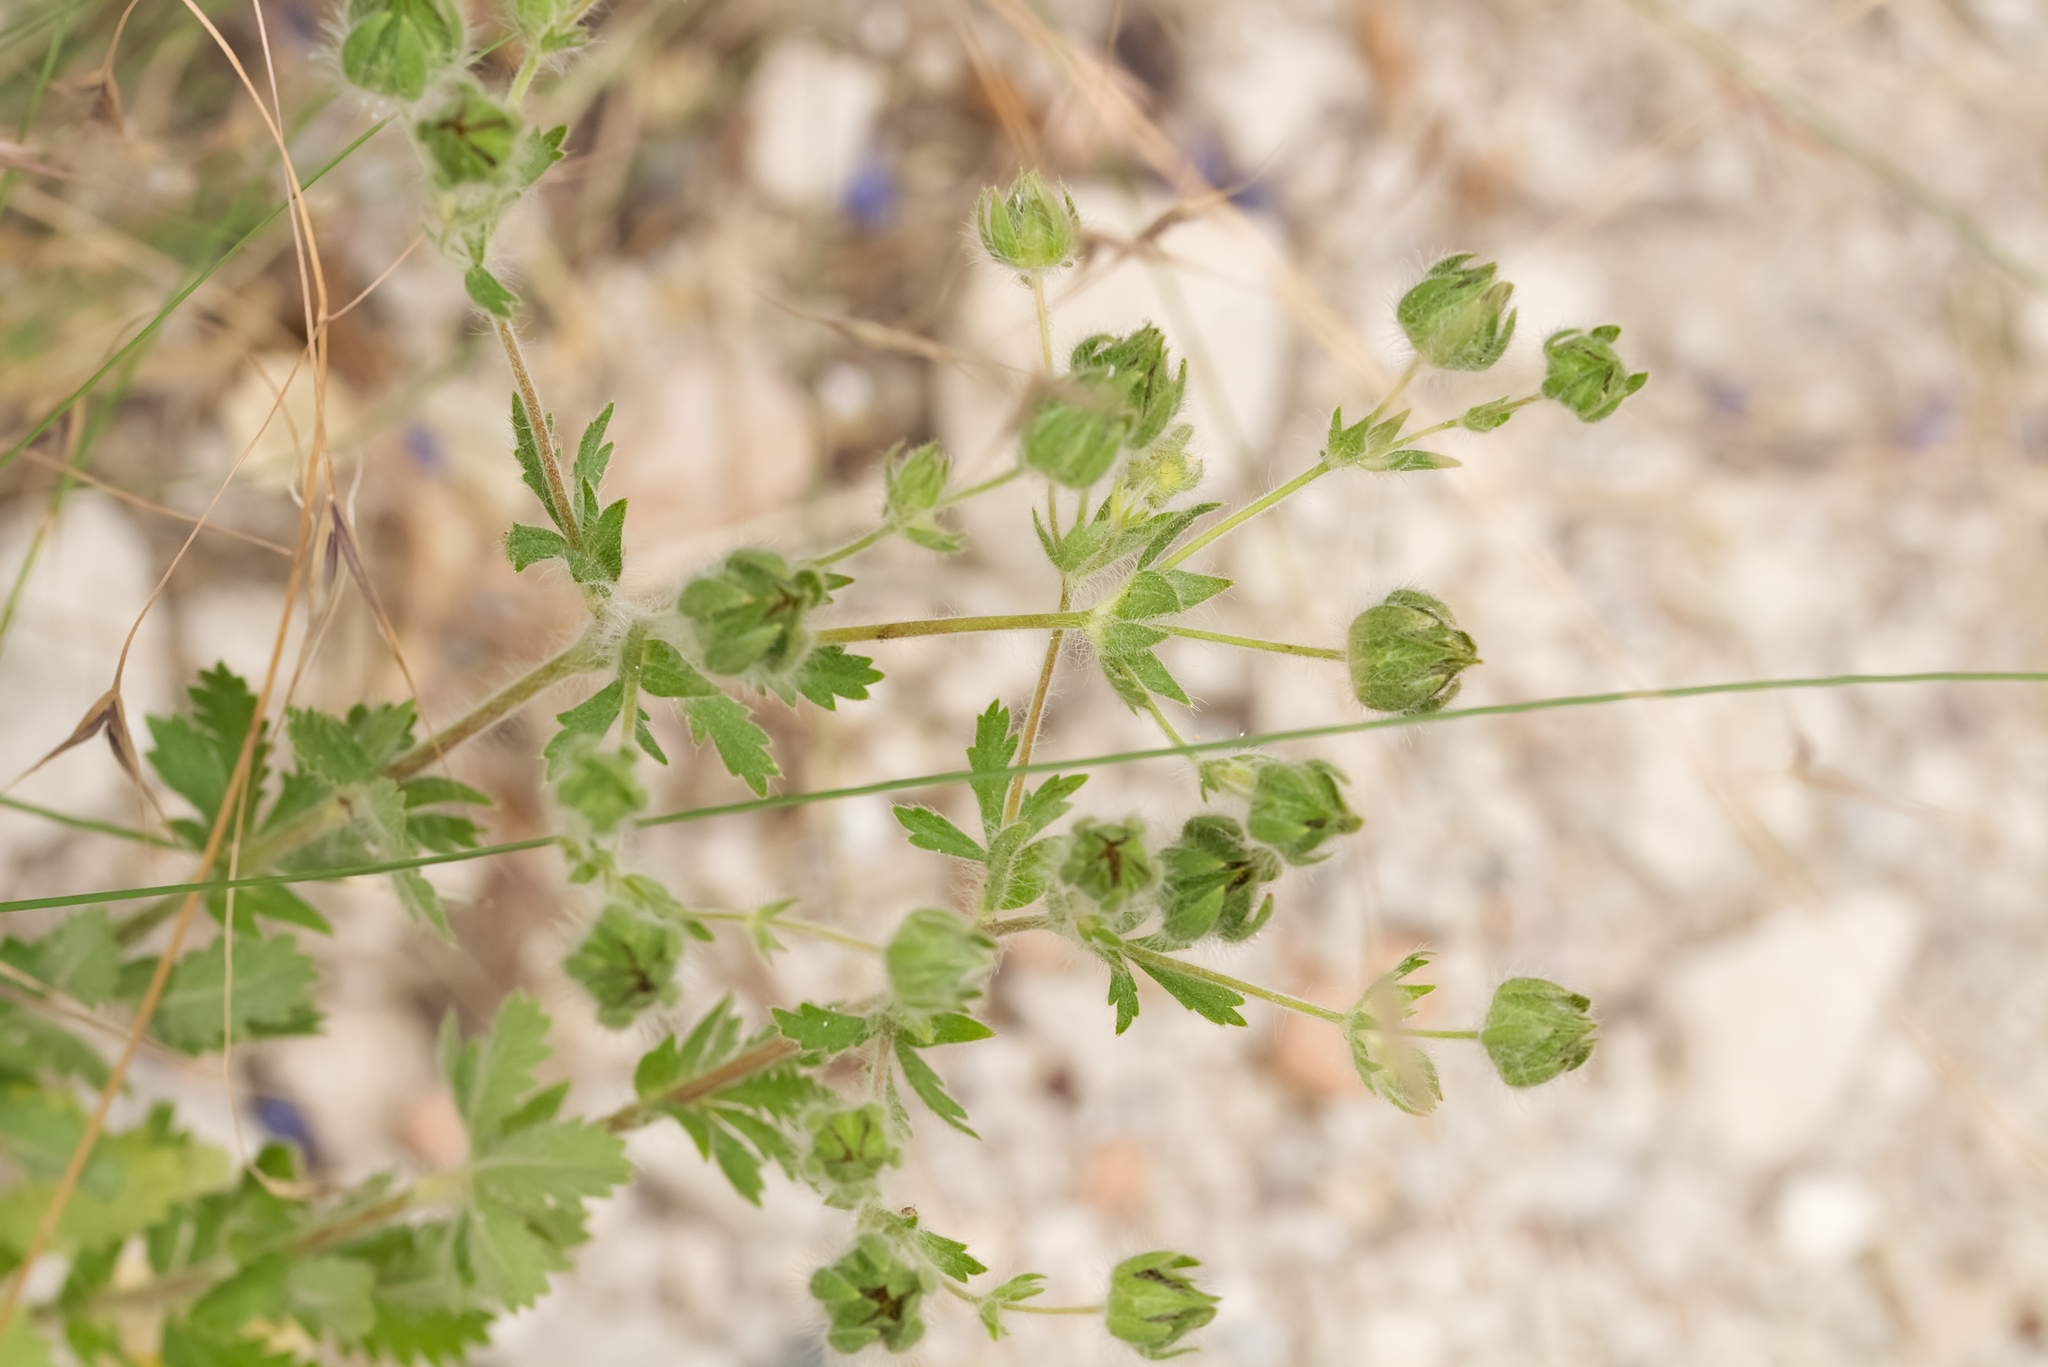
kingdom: Plantae
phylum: Tracheophyta
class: Magnoliopsida
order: Rosales
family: Rosaceae
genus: Potentilla
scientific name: Potentilla recta
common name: Sulphur cinquefoil
